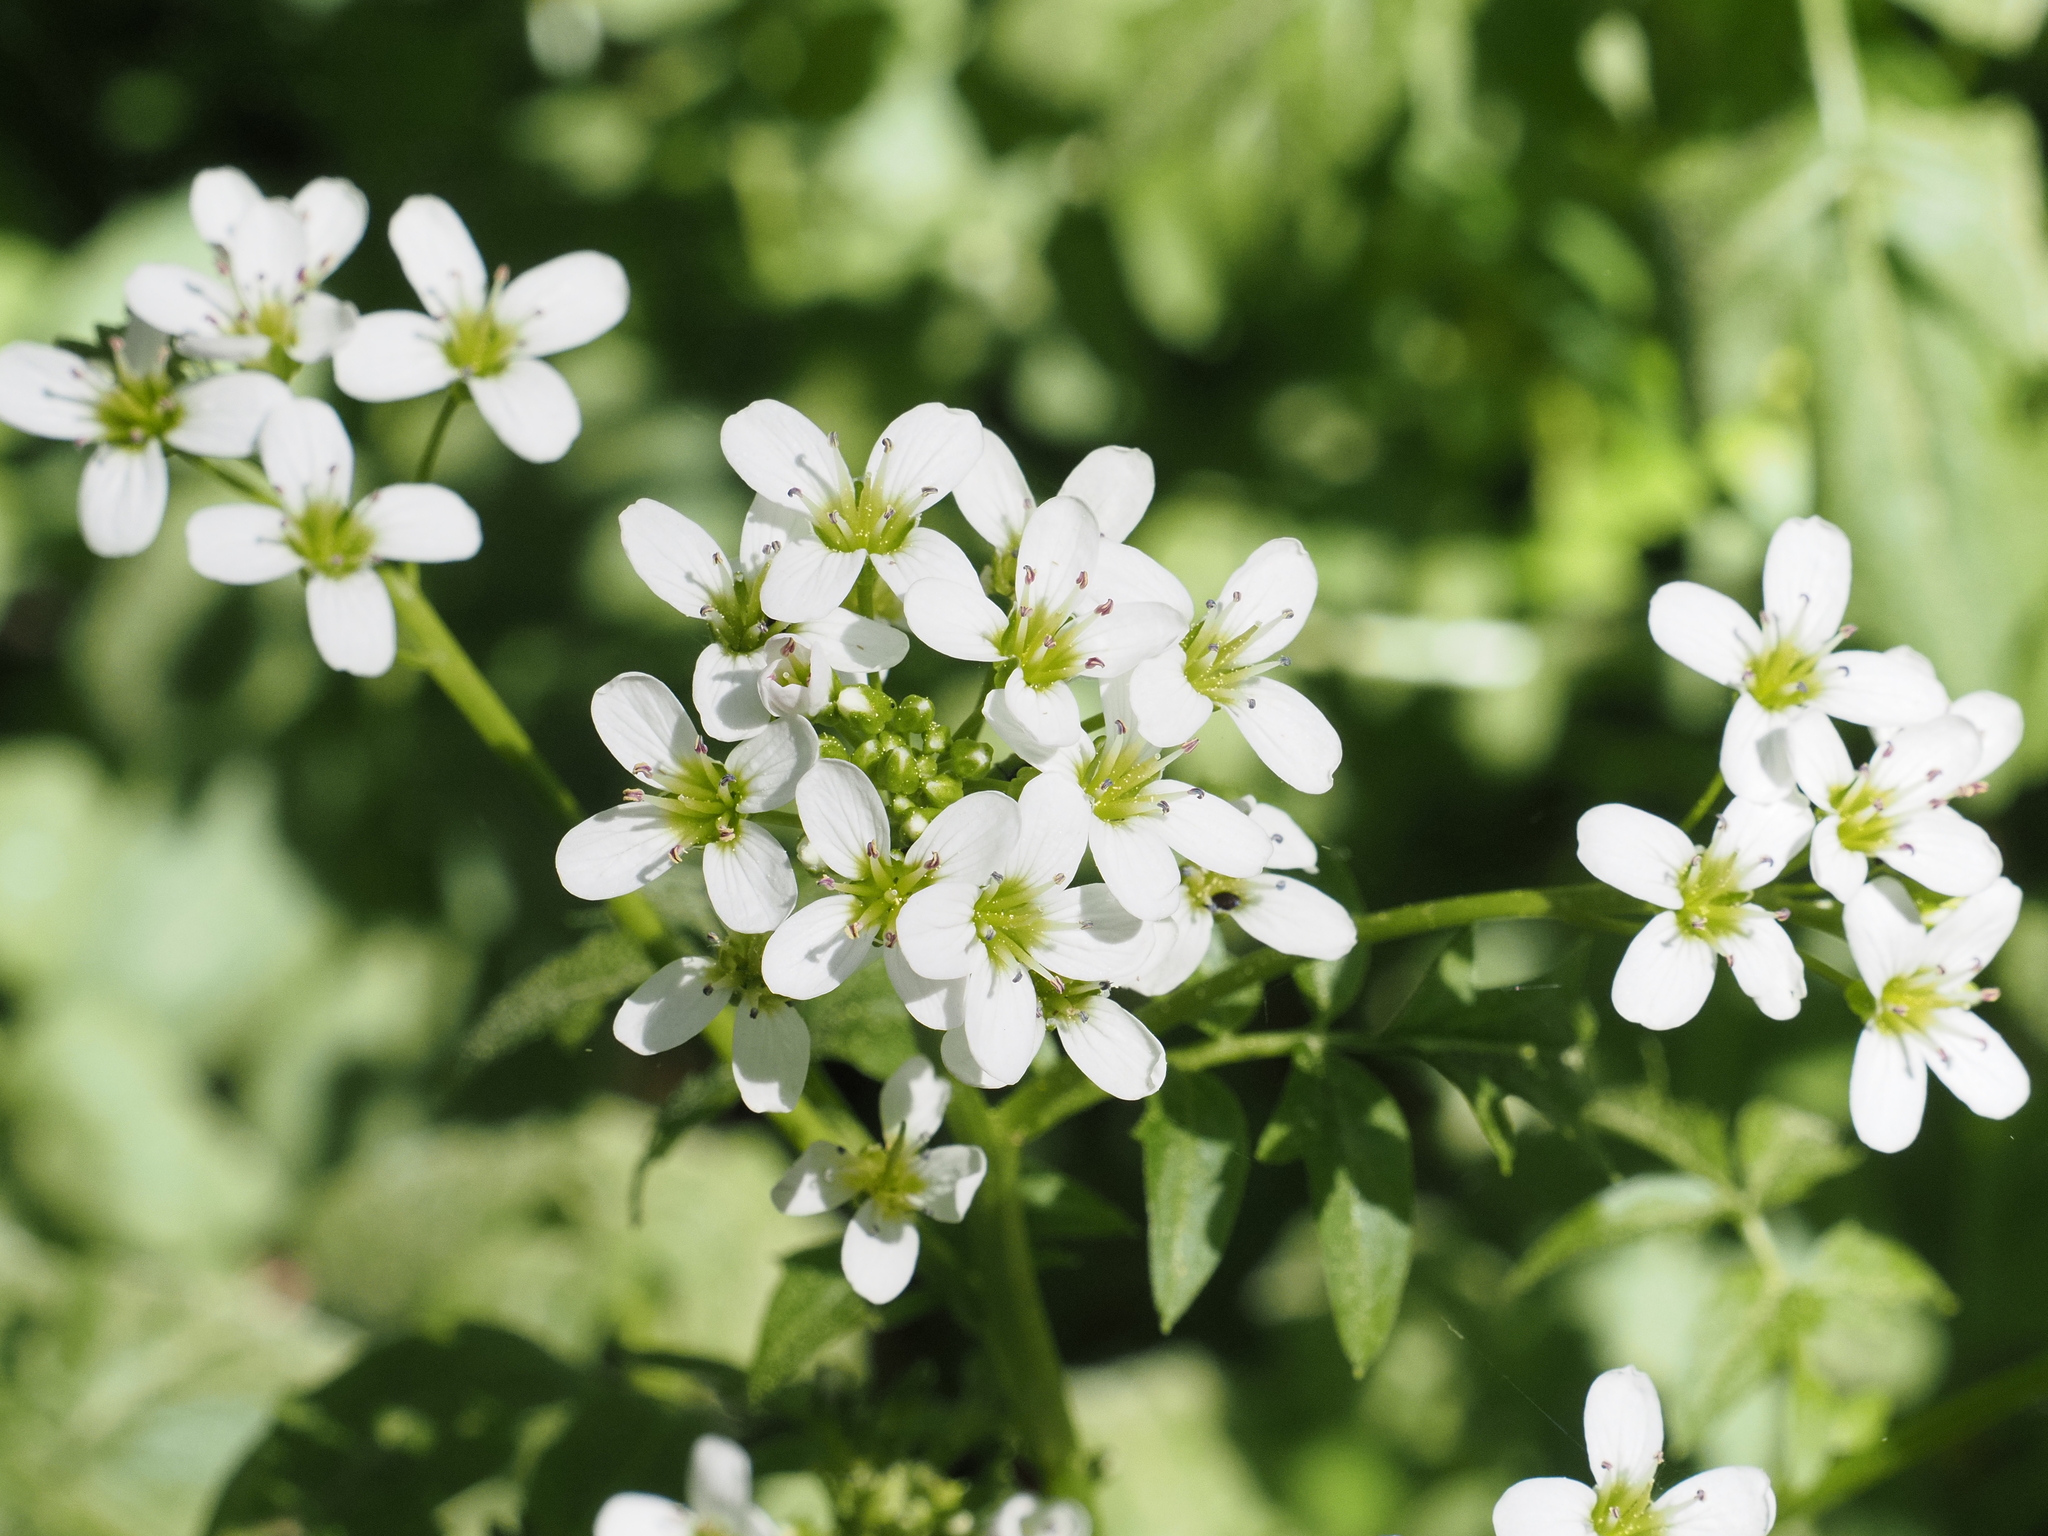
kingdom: Plantae
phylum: Tracheophyta
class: Magnoliopsida
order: Brassicales
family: Brassicaceae
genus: Cardamine
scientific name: Cardamine amara
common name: Large bitter-cress
